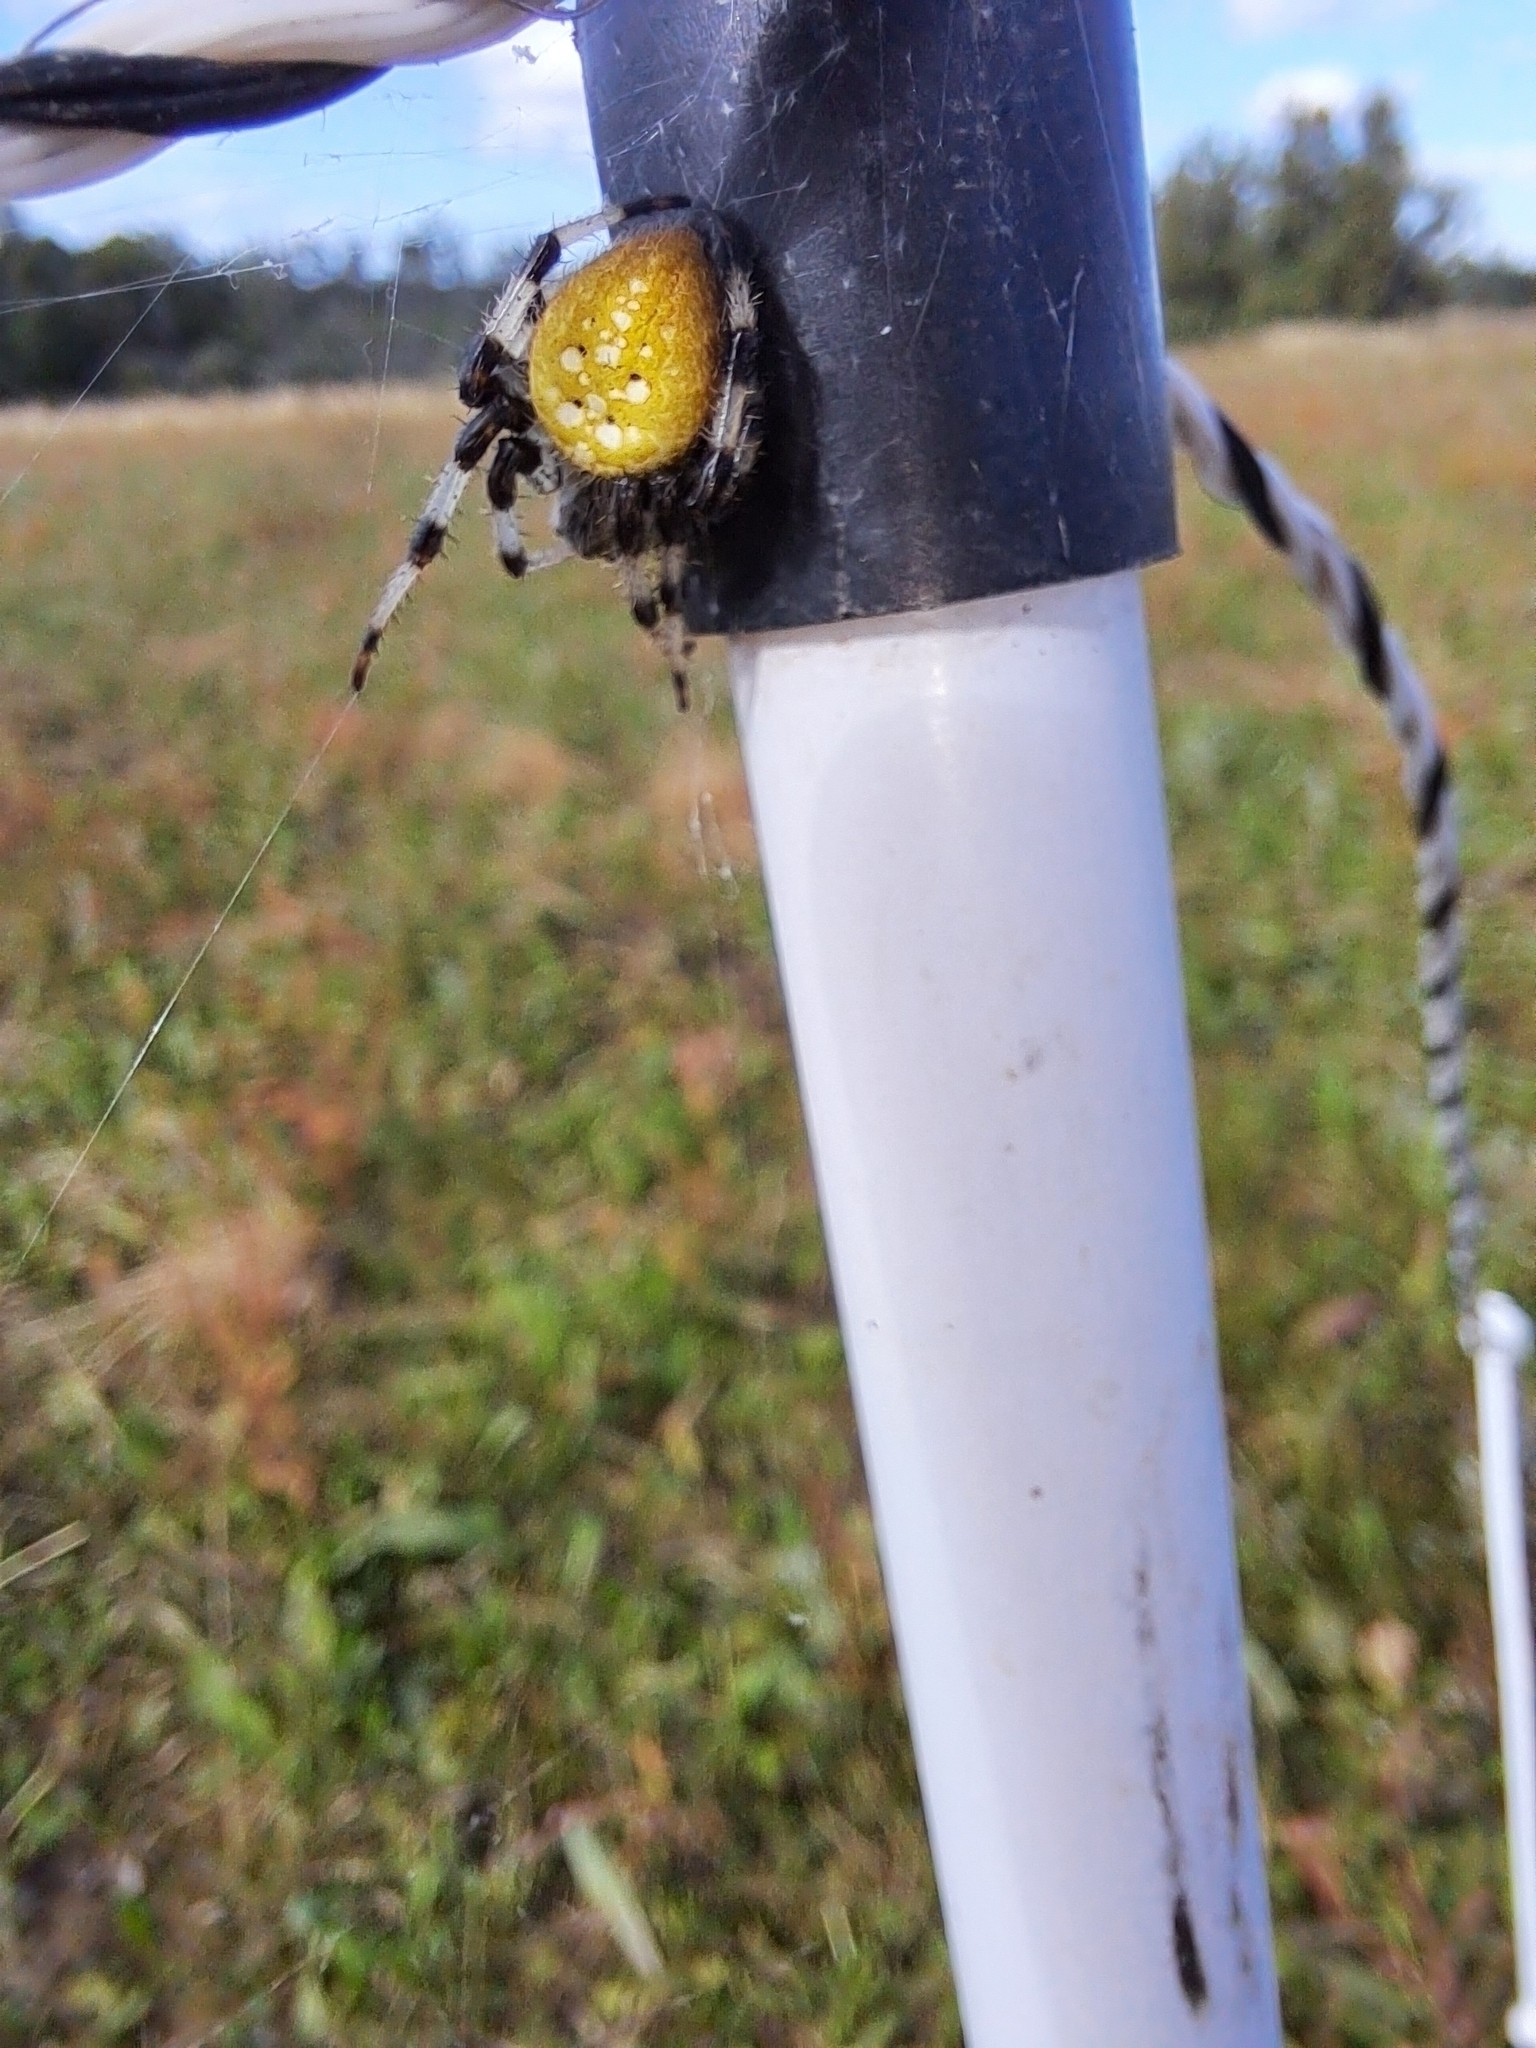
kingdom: Animalia
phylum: Arthropoda
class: Arachnida
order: Araneae
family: Araneidae
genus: Araneus
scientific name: Araneus trifolium
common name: Shamrock orbweaver
